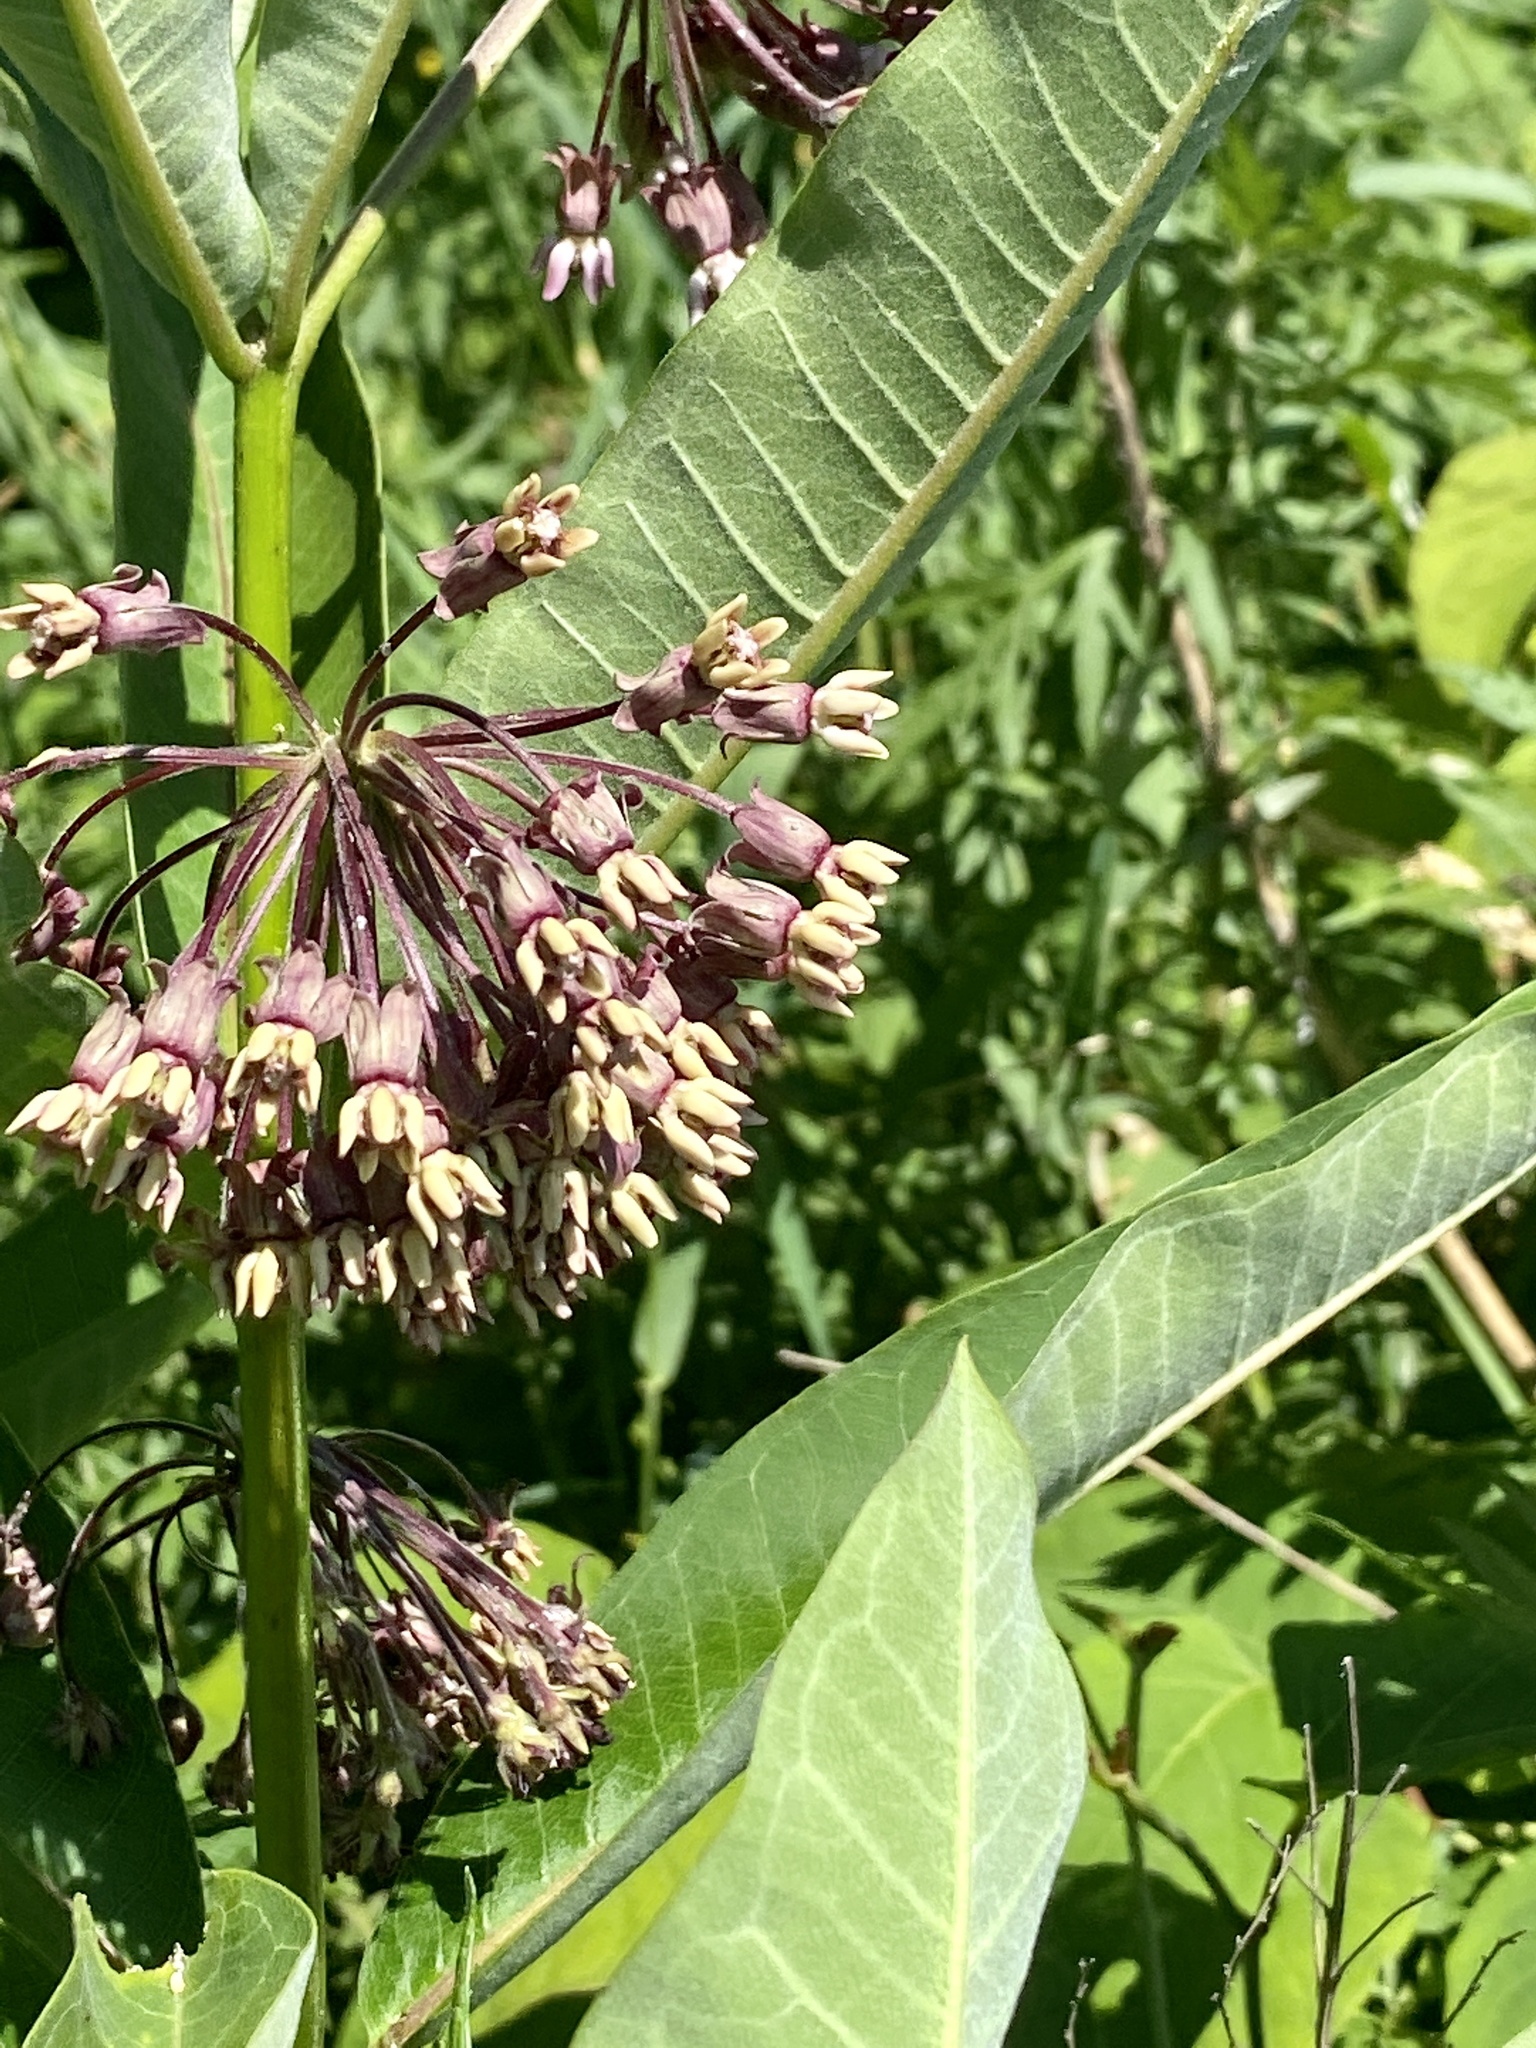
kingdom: Plantae
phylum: Tracheophyta
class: Magnoliopsida
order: Gentianales
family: Apocynaceae
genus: Asclepias
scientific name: Asclepias syriaca
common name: Common milkweed
